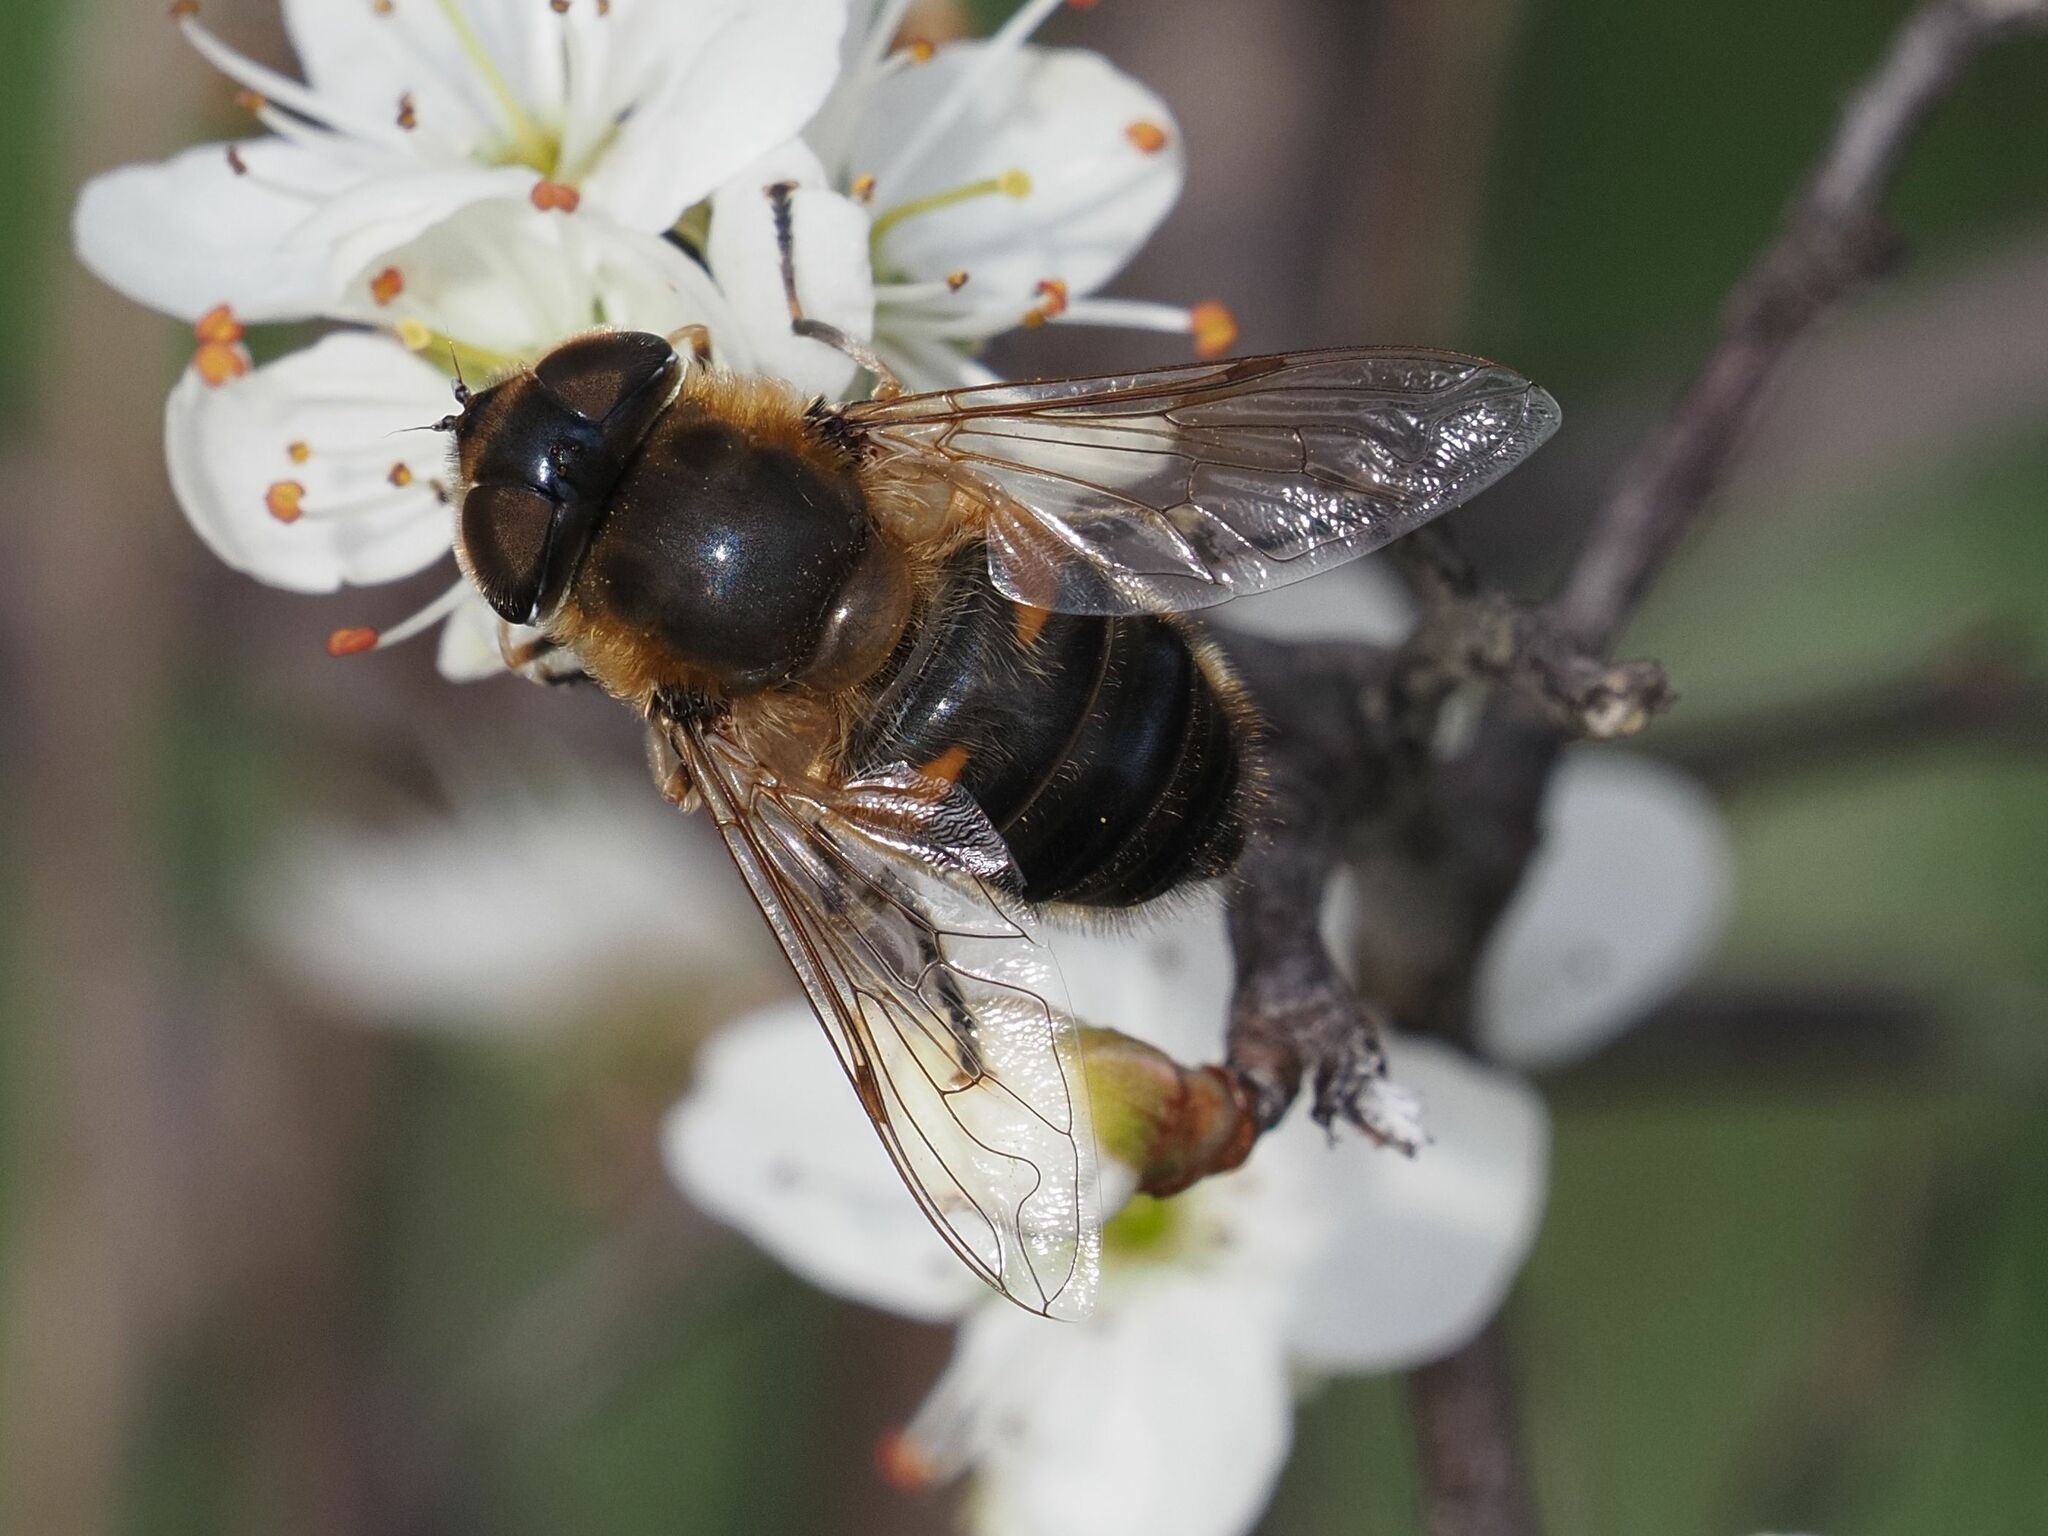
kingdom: Animalia
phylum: Arthropoda
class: Insecta
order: Diptera
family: Syrphidae
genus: Eristalis
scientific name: Eristalis pertinax
